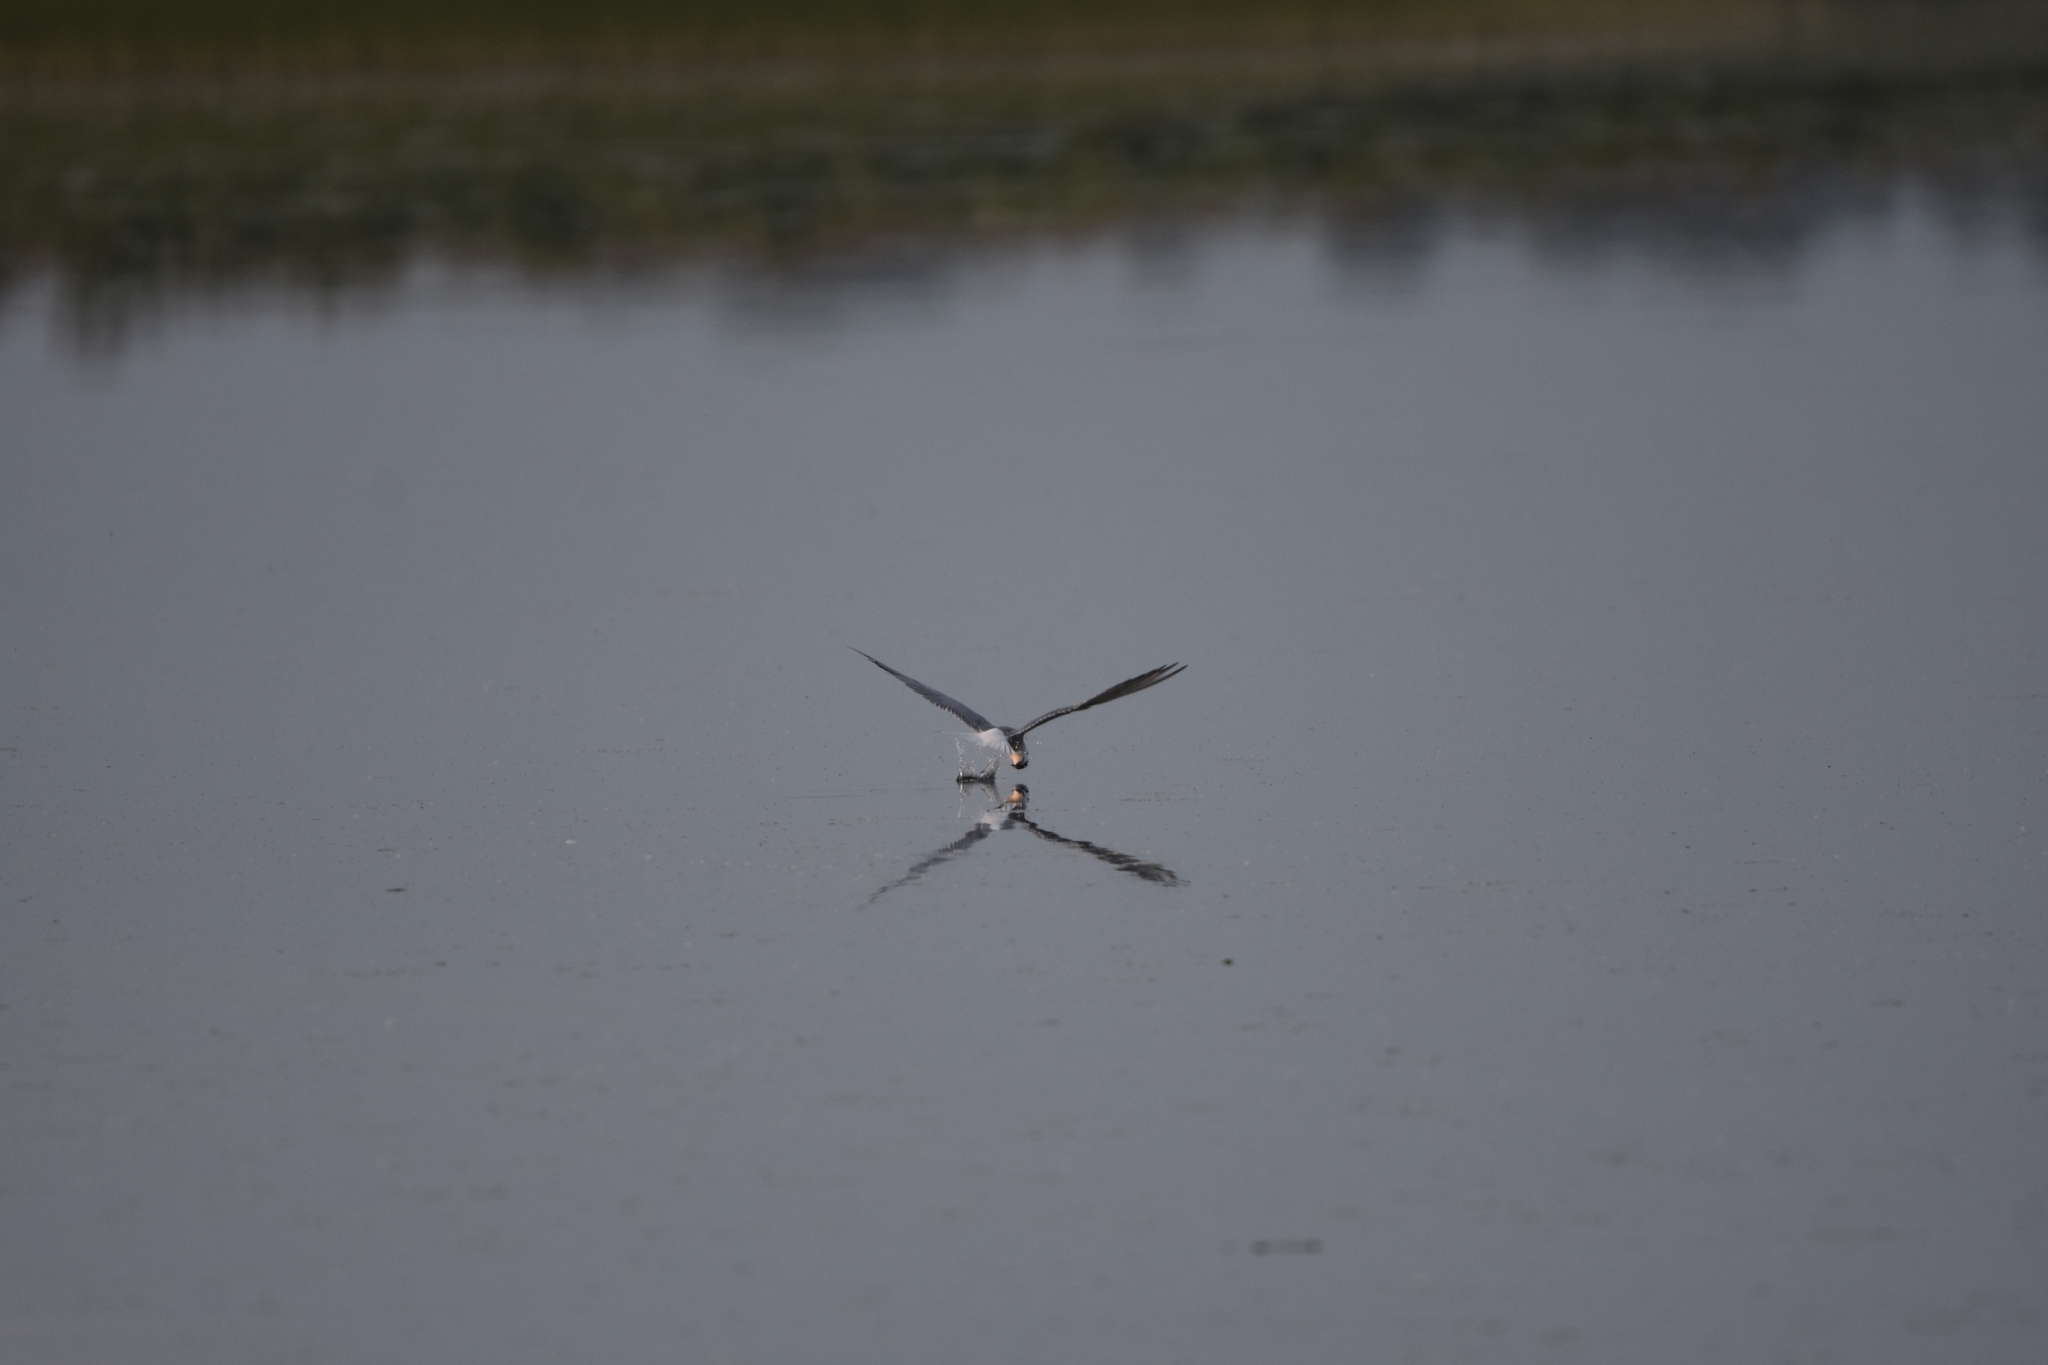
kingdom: Animalia
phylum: Chordata
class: Aves
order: Charadriiformes
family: Laridae
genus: Sterna
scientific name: Sterna hirundo
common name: Common tern
